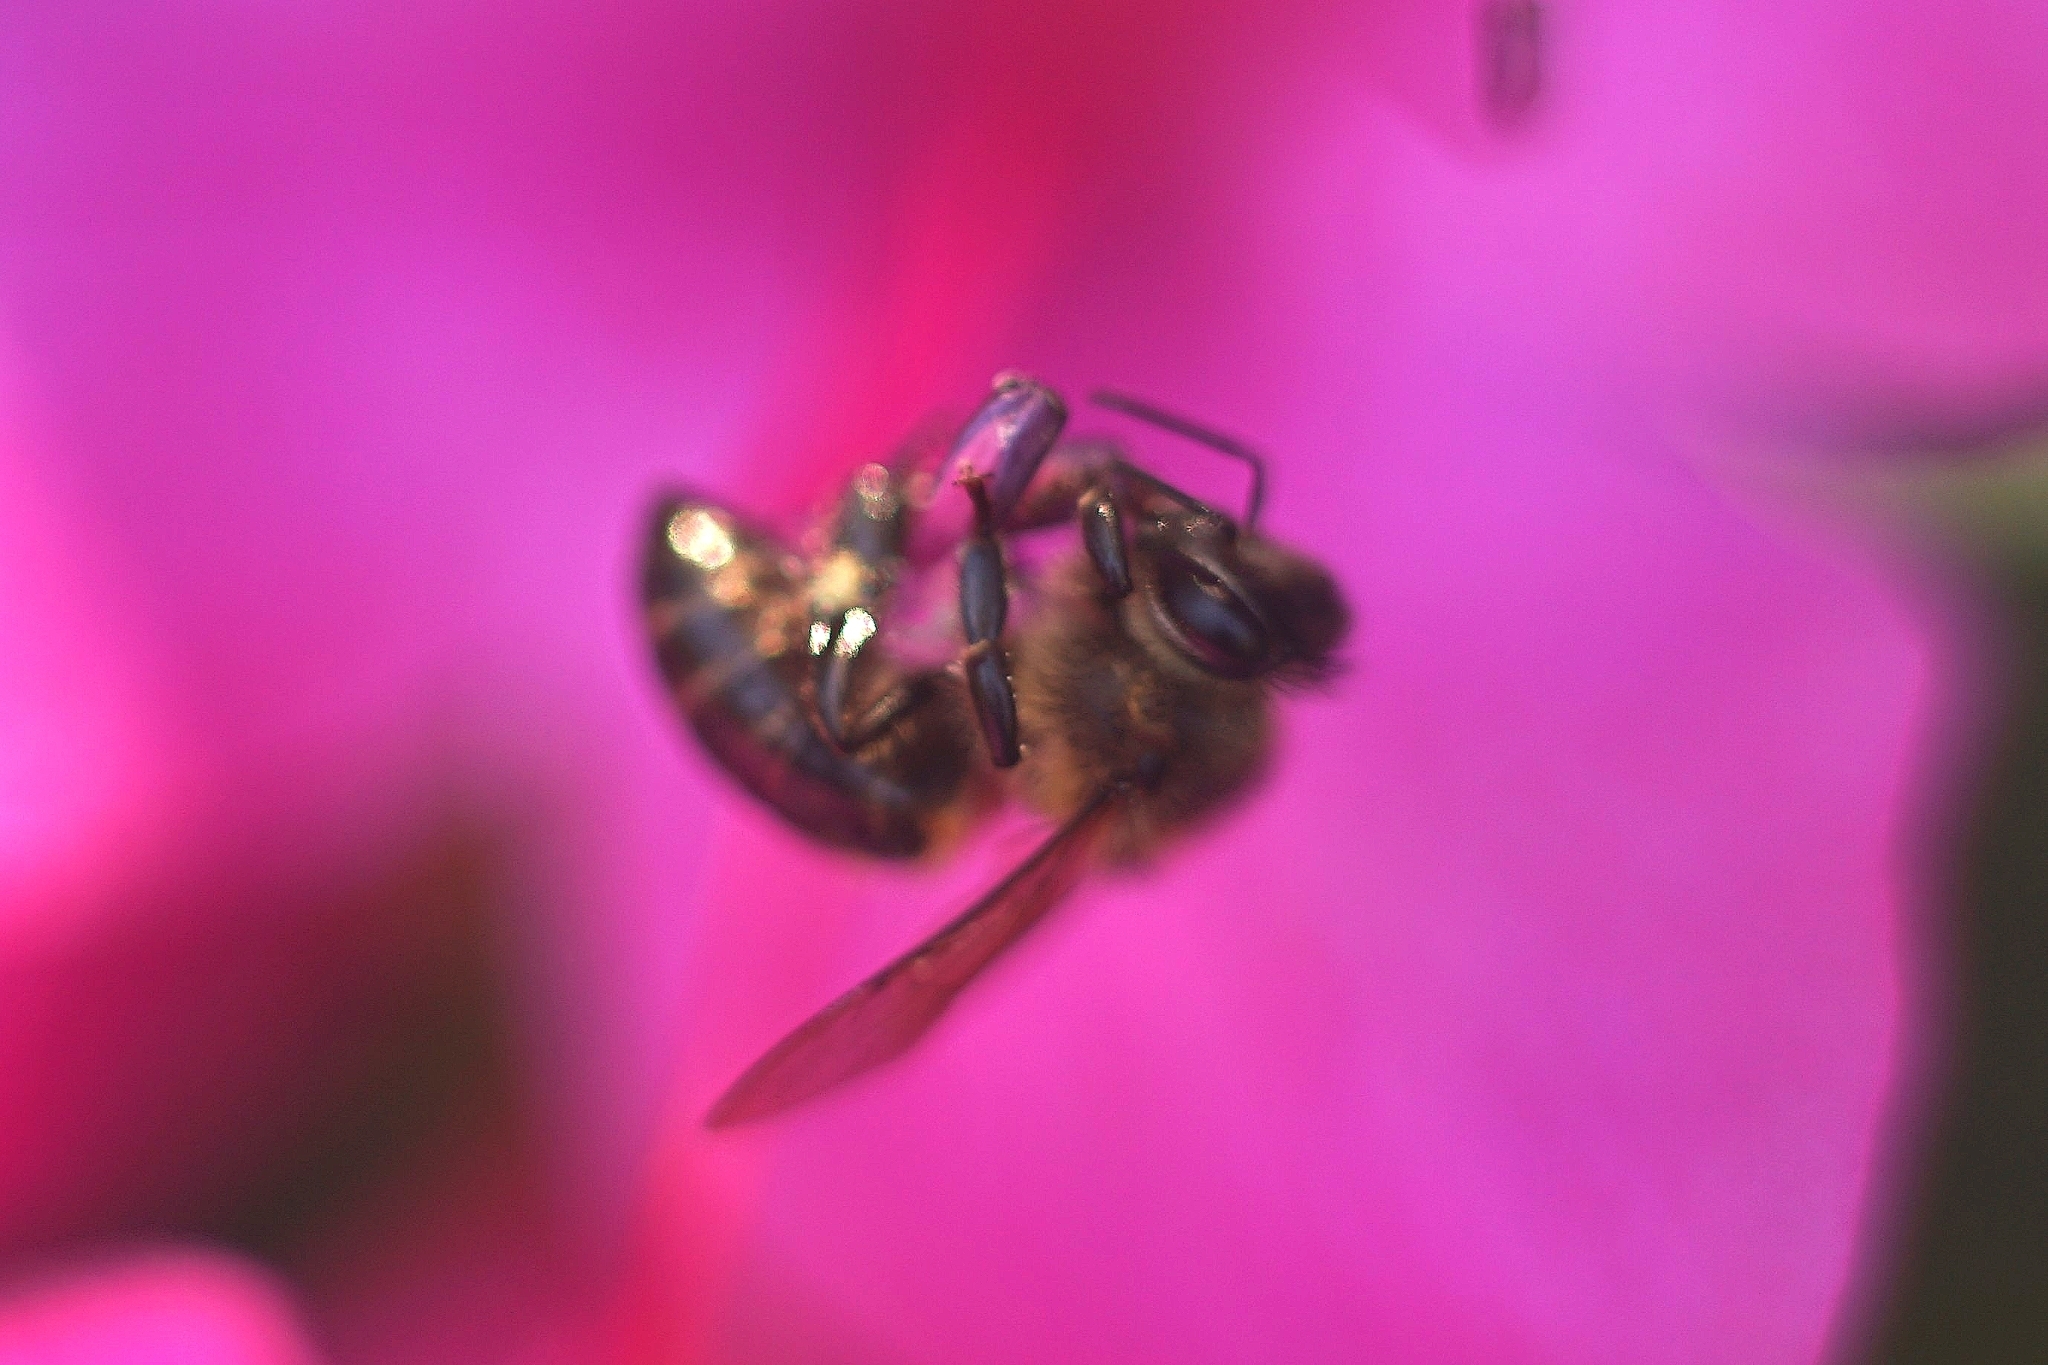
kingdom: Animalia
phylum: Arthropoda
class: Insecta
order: Hymenoptera
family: Apidae
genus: Apis
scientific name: Apis mellifera
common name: Honey bee
